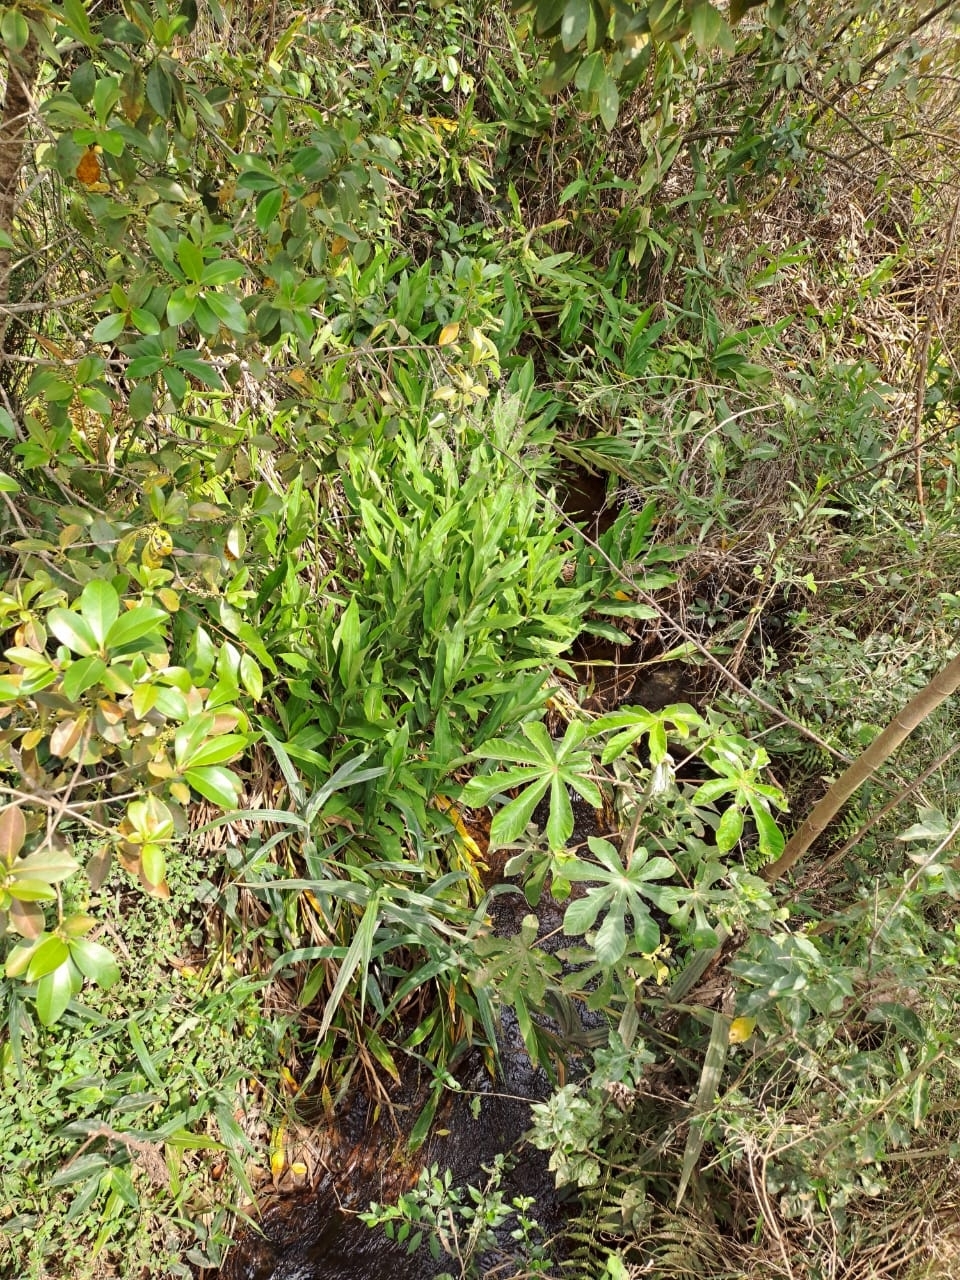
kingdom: Plantae
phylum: Tracheophyta
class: Liliopsida
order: Zingiberales
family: Zingiberaceae
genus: Hedychium
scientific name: Hedychium coronarium
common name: White garland-lily
